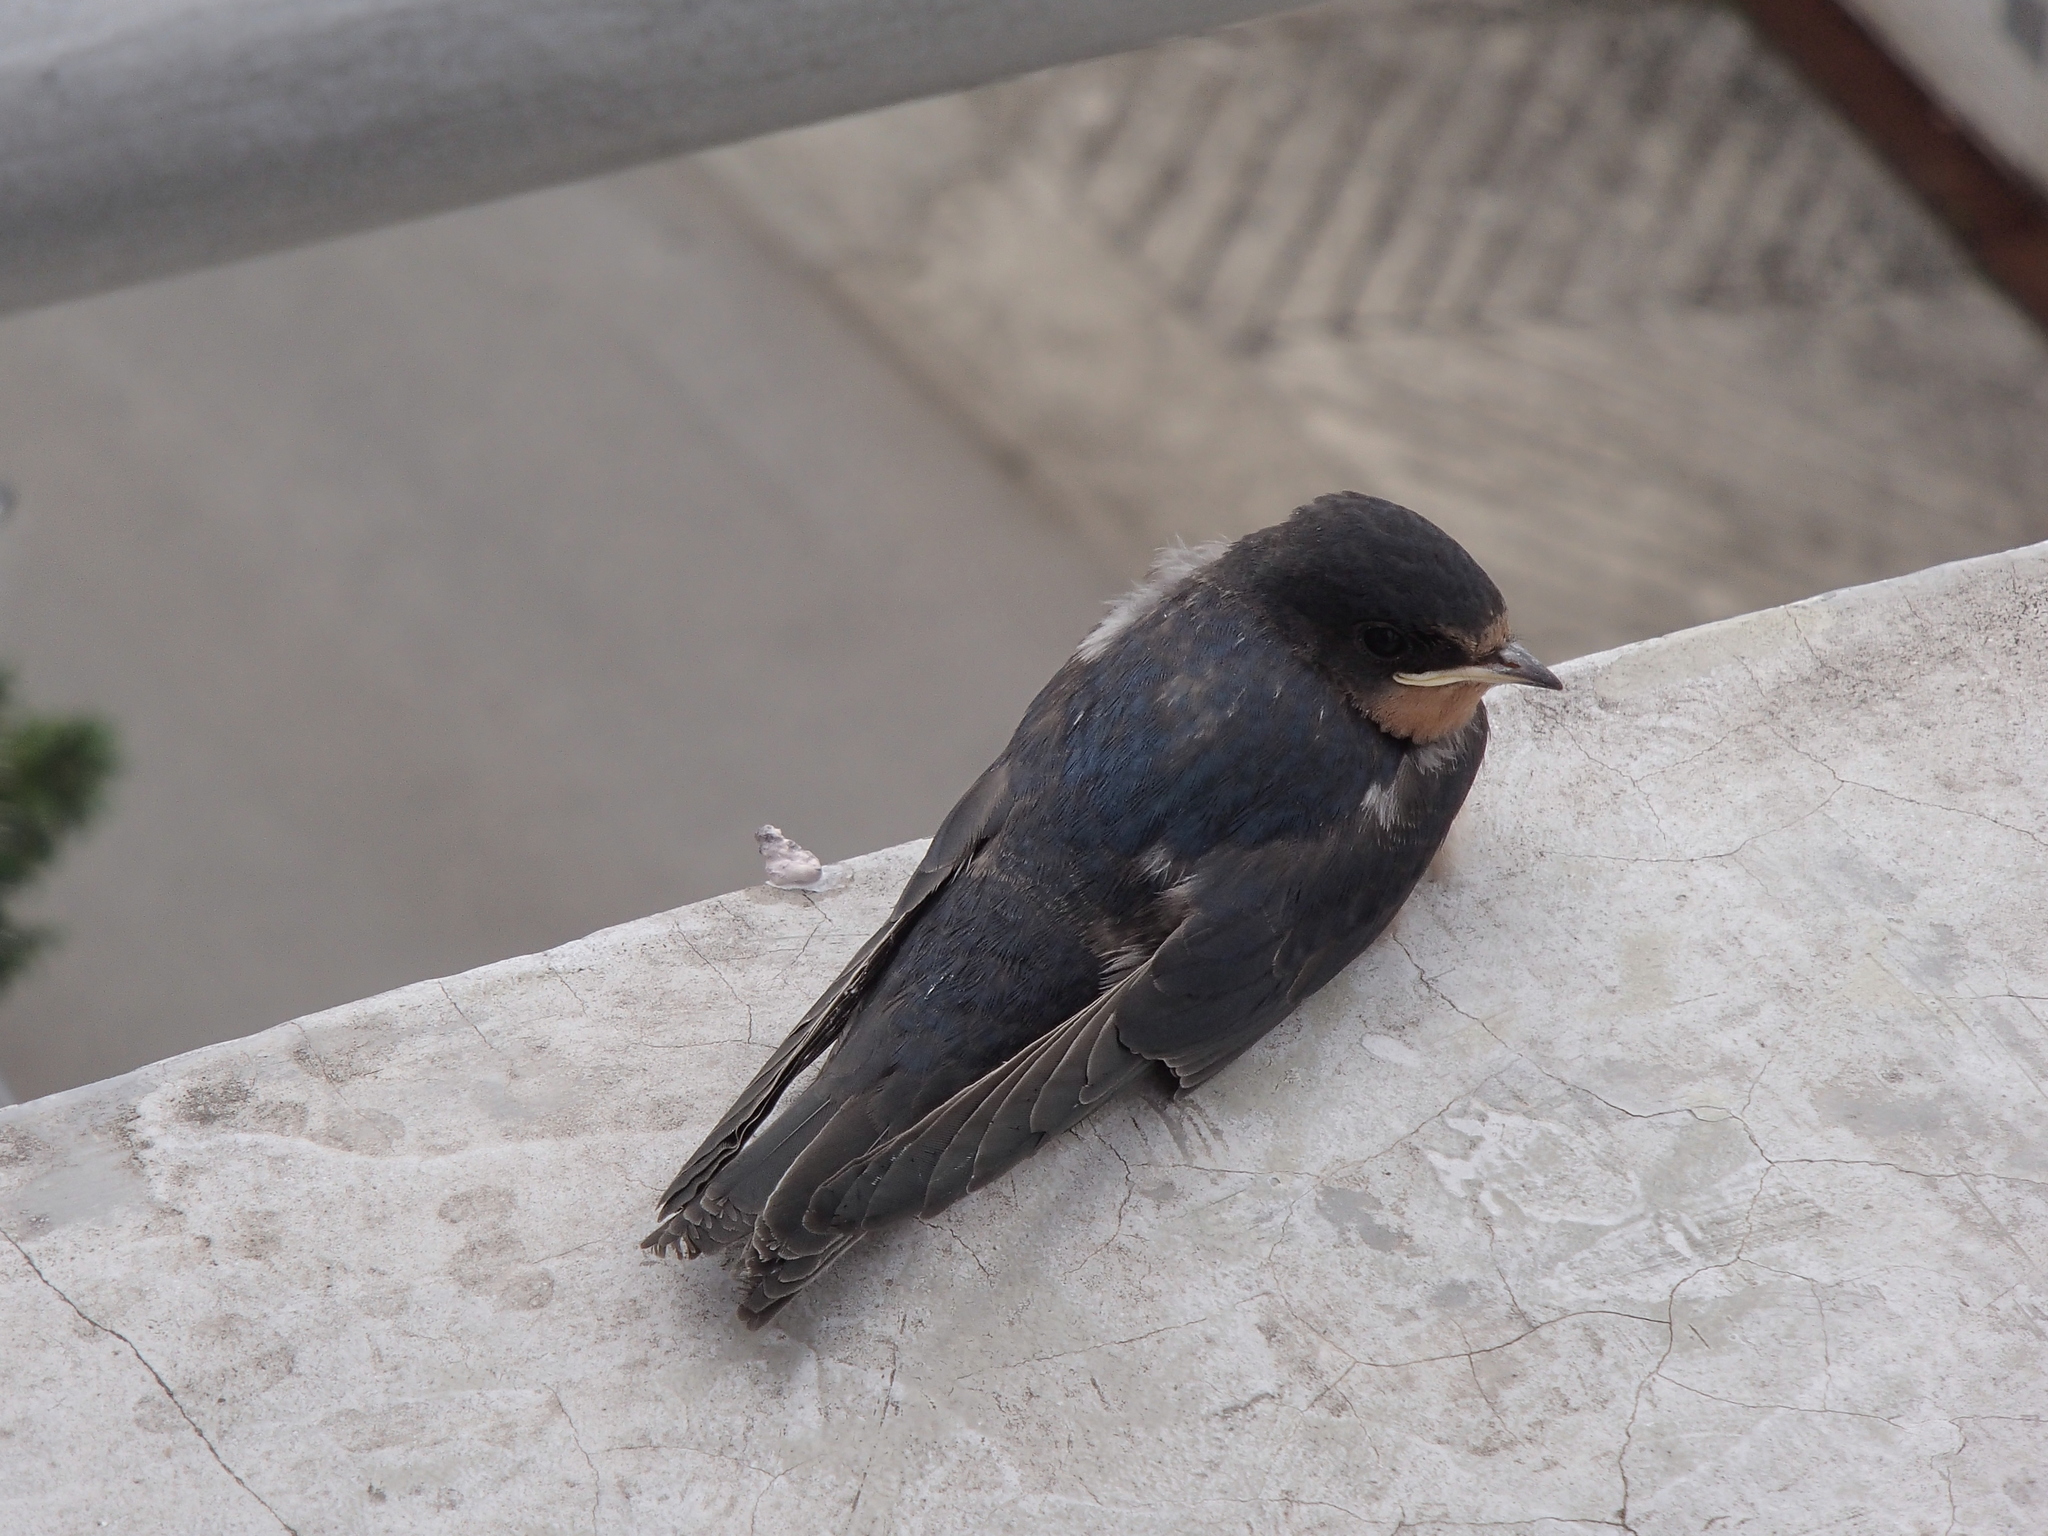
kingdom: Animalia
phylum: Chordata
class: Aves
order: Passeriformes
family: Hirundinidae
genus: Hirundo
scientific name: Hirundo rustica
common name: Barn swallow
